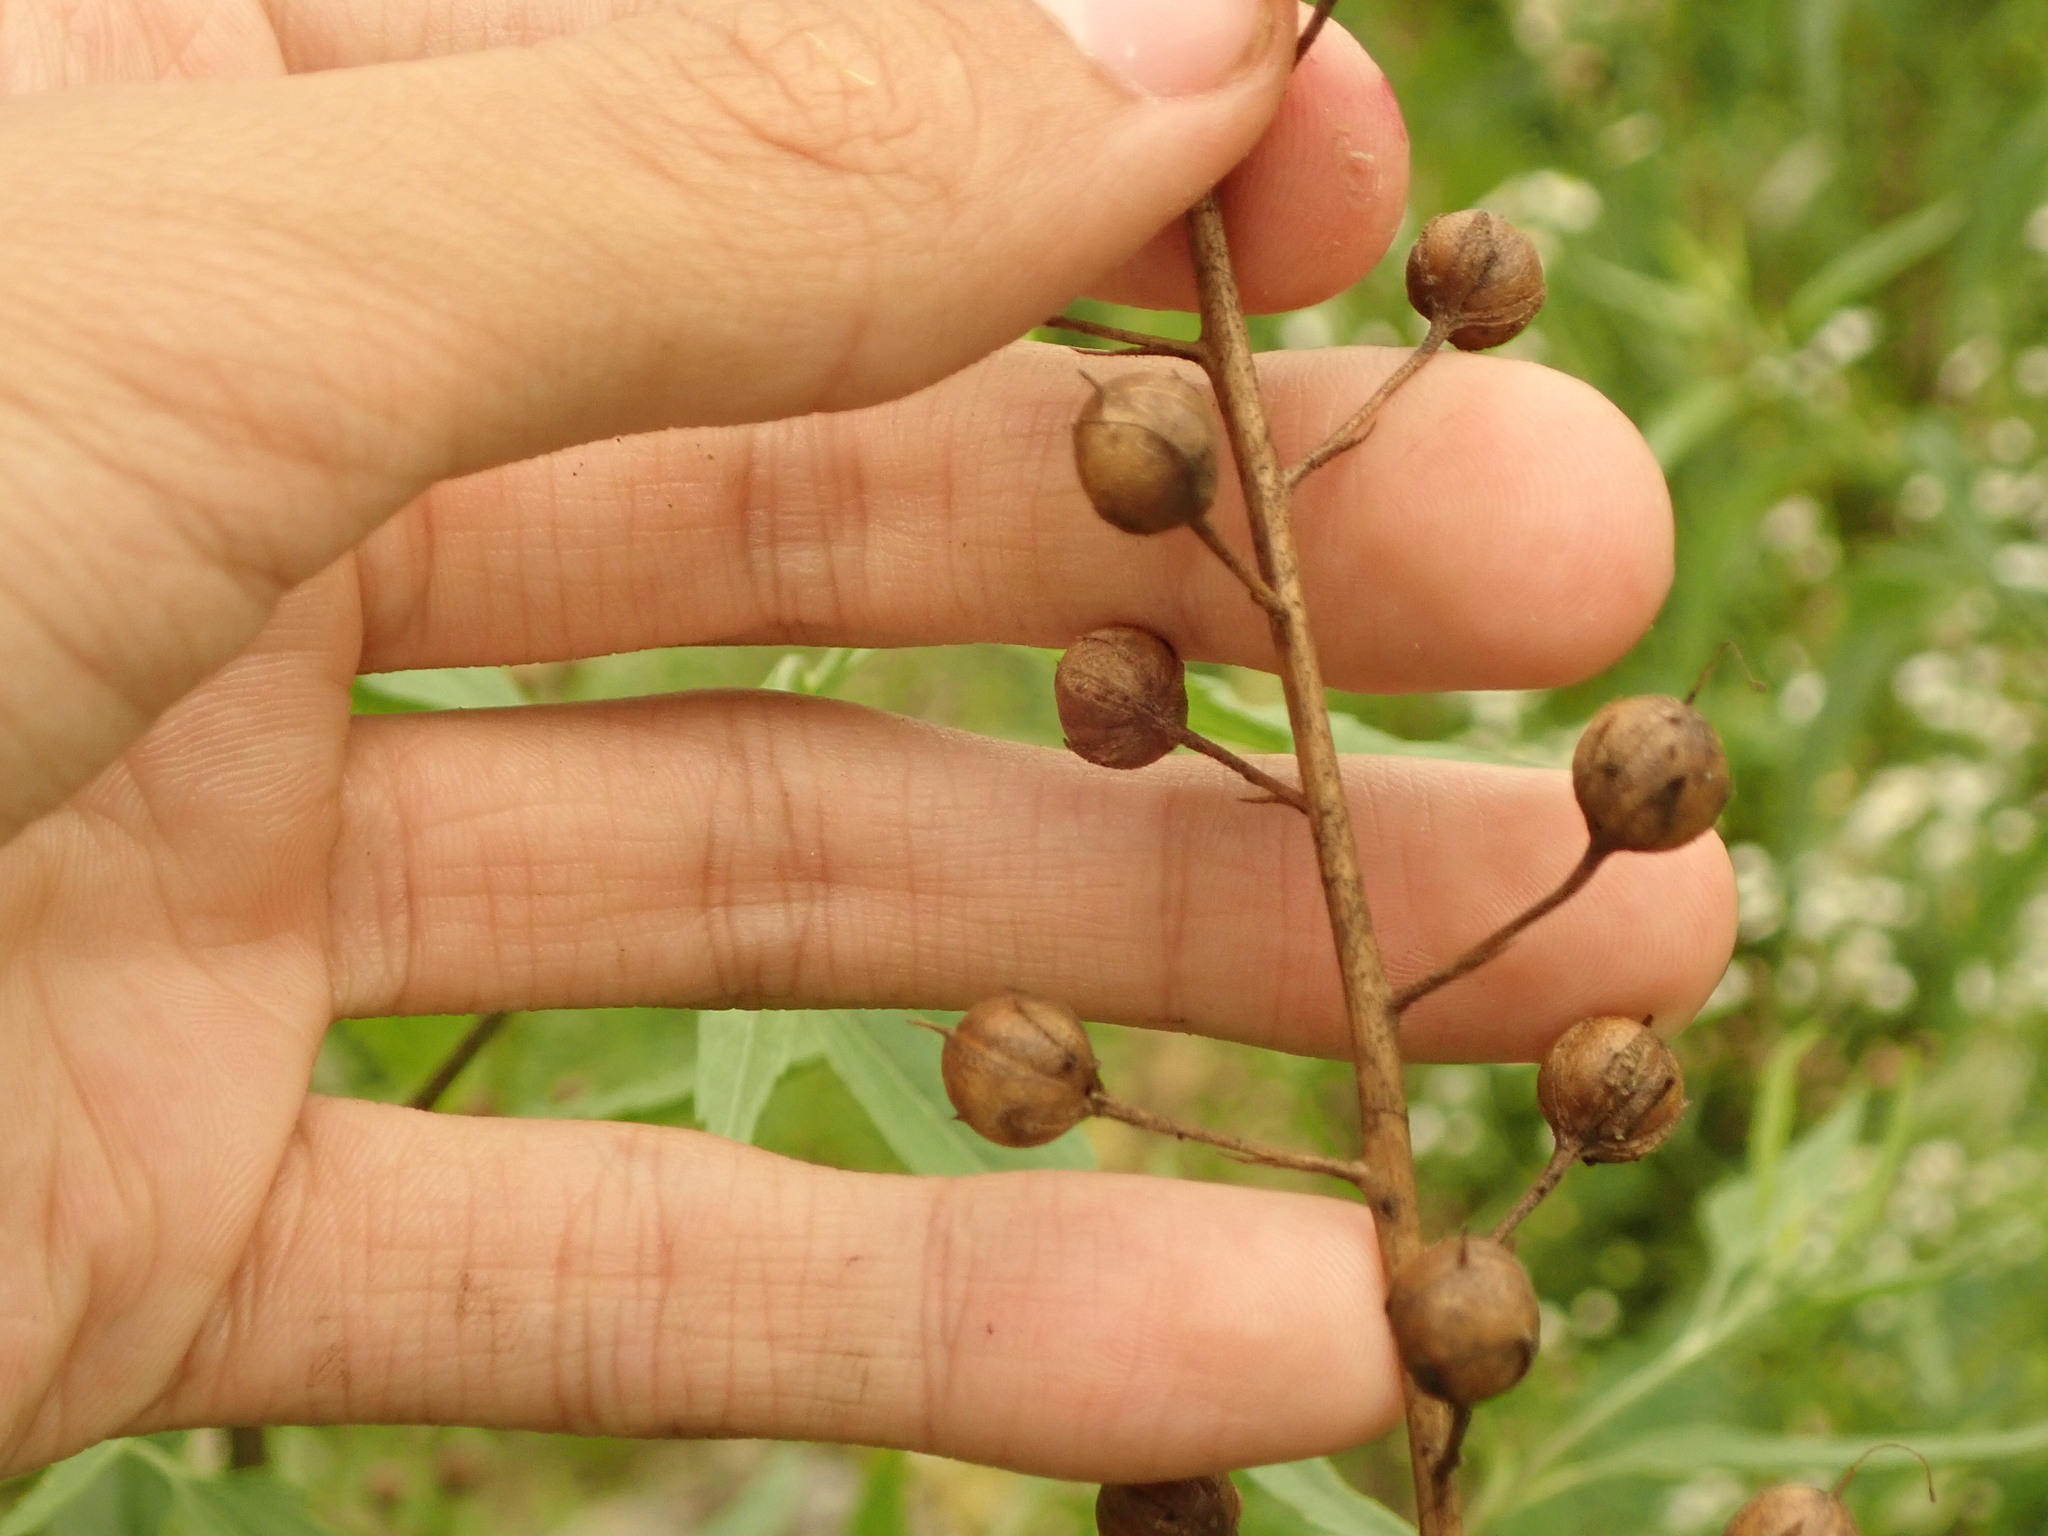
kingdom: Plantae
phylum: Tracheophyta
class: Magnoliopsida
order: Lamiales
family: Scrophulariaceae
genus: Verbascum
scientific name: Verbascum blattaria
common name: Moth mullein
